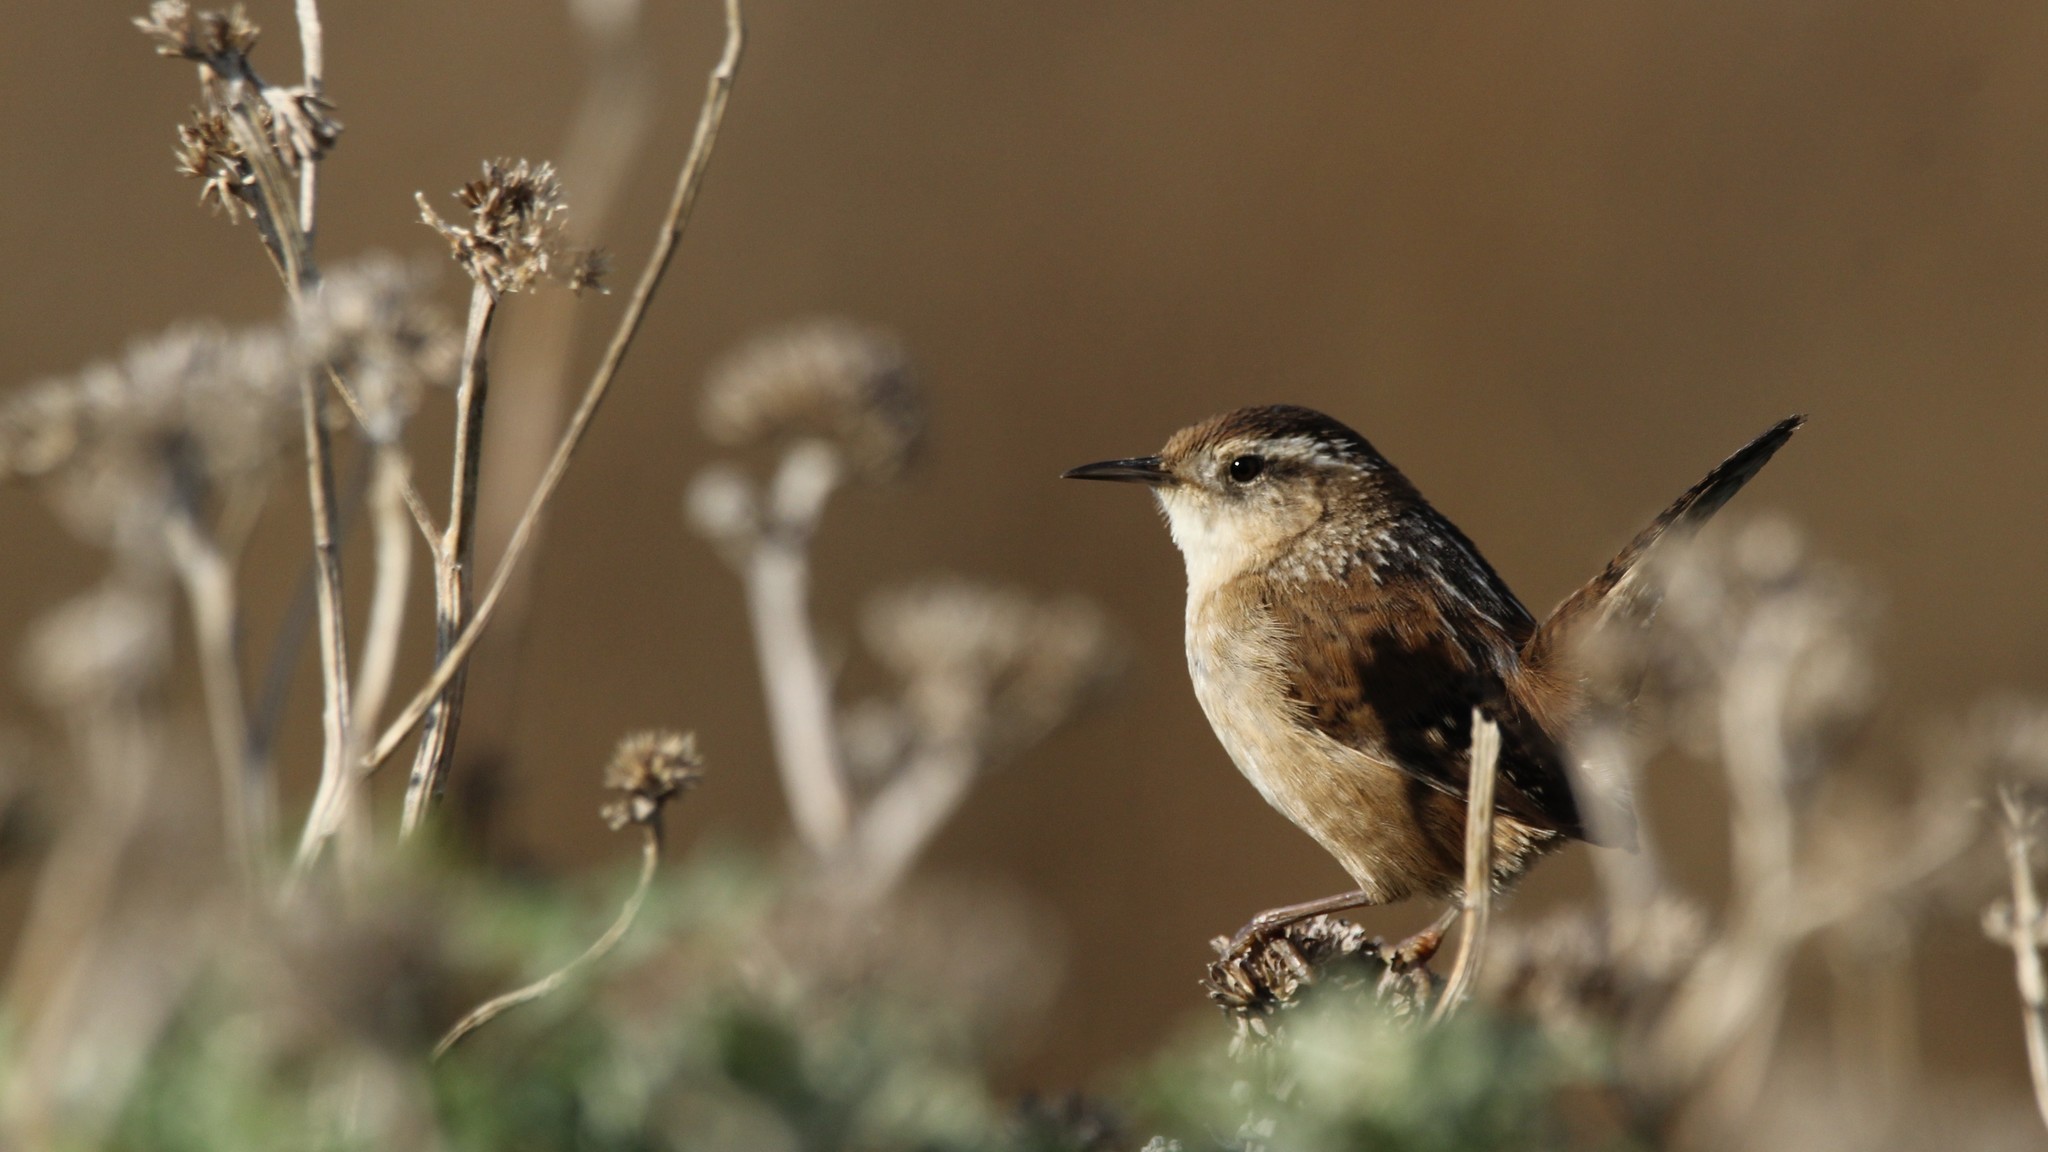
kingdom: Animalia
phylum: Chordata
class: Aves
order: Passeriformes
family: Troglodytidae
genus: Cistothorus
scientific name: Cistothorus palustris
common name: Marsh wren
